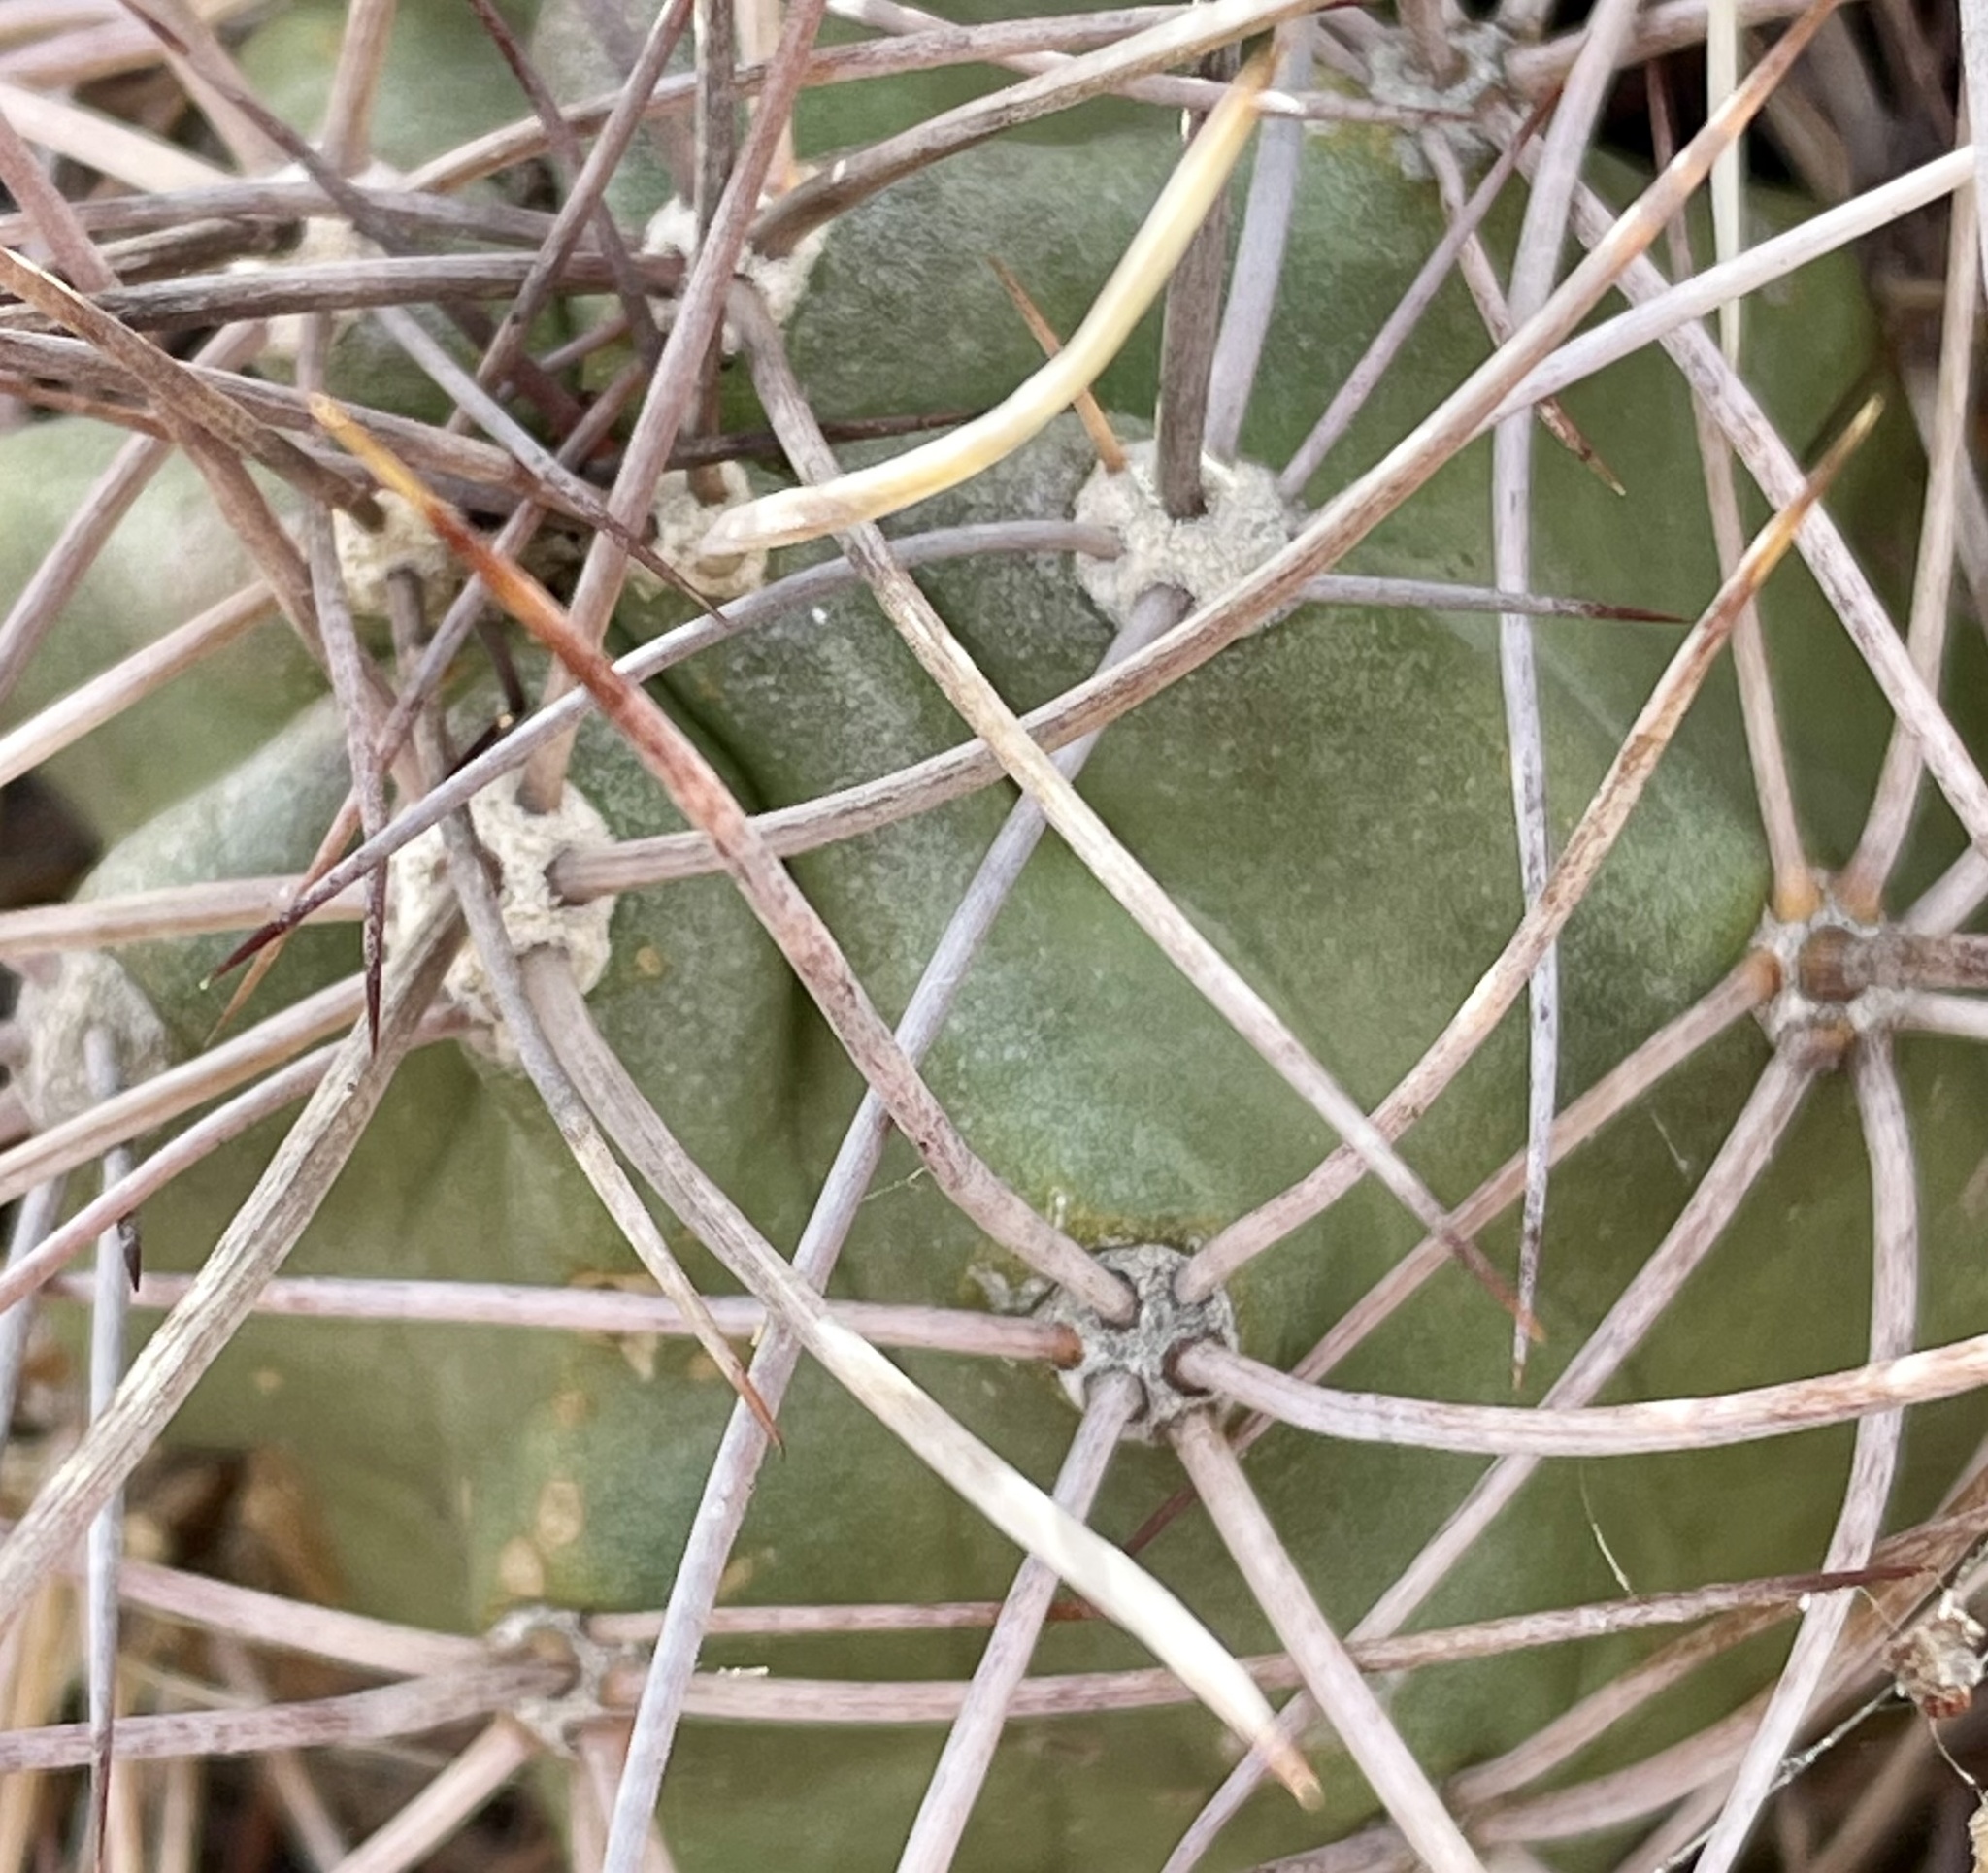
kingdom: Plantae
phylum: Tracheophyta
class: Magnoliopsida
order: Caryophyllales
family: Cactaceae
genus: Echinocereus
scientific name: Echinocereus triglochidiatus
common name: Claretcup hedgehog
